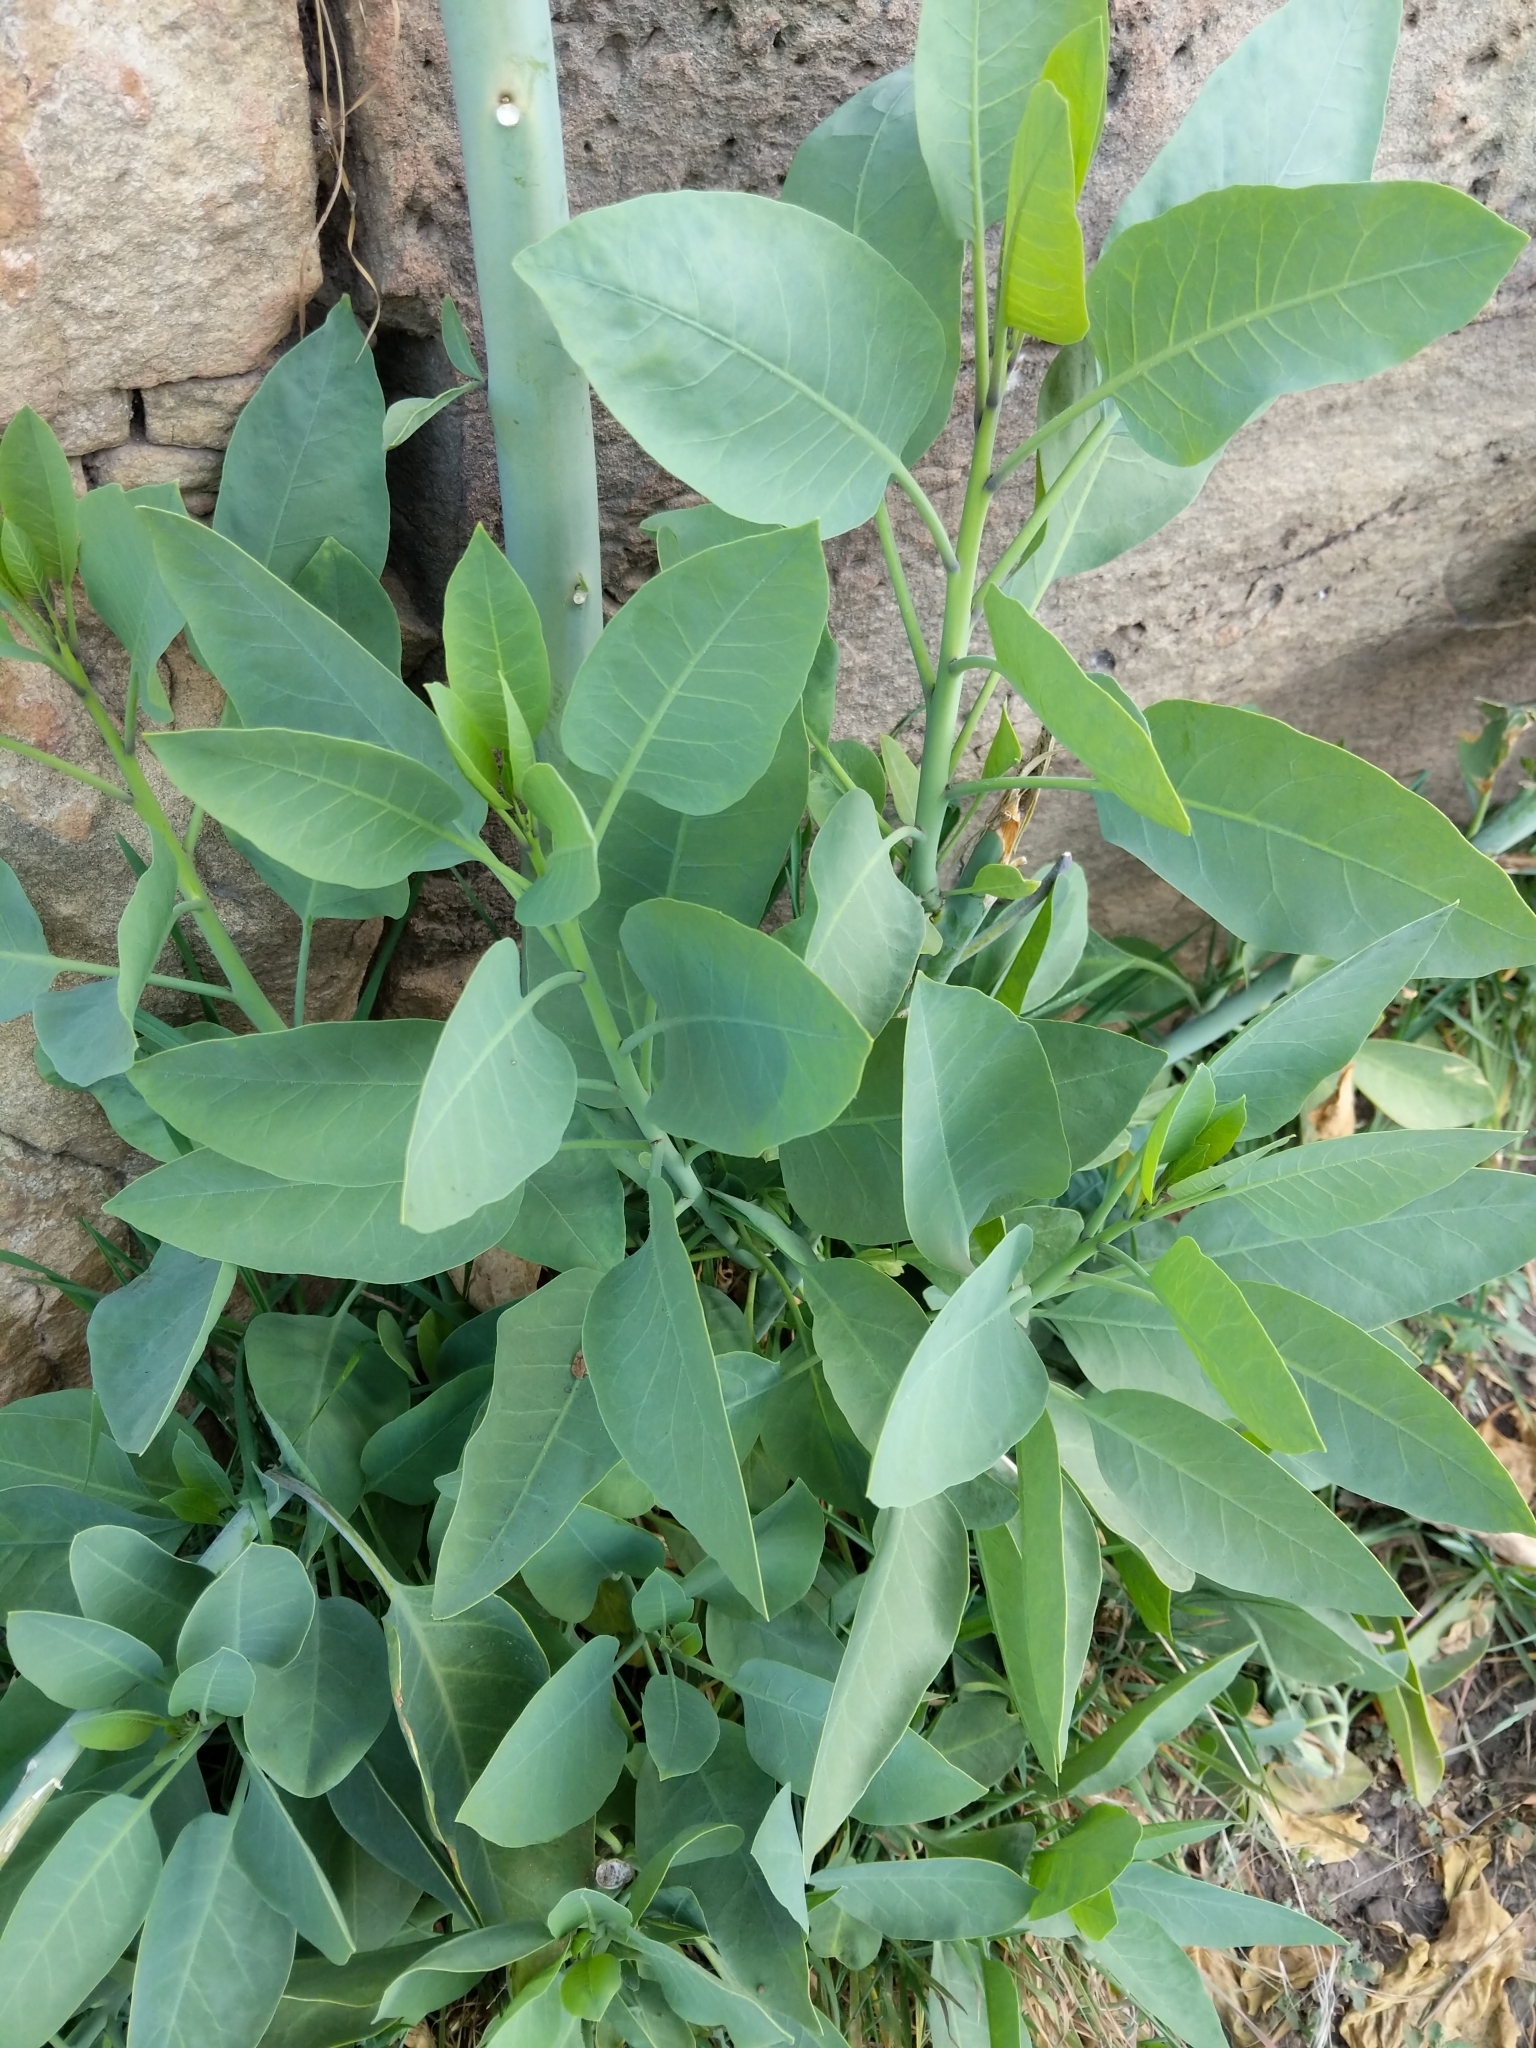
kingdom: Plantae
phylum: Tracheophyta
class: Magnoliopsida
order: Solanales
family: Solanaceae
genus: Nicotiana
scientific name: Nicotiana glauca
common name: Tree tobacco
